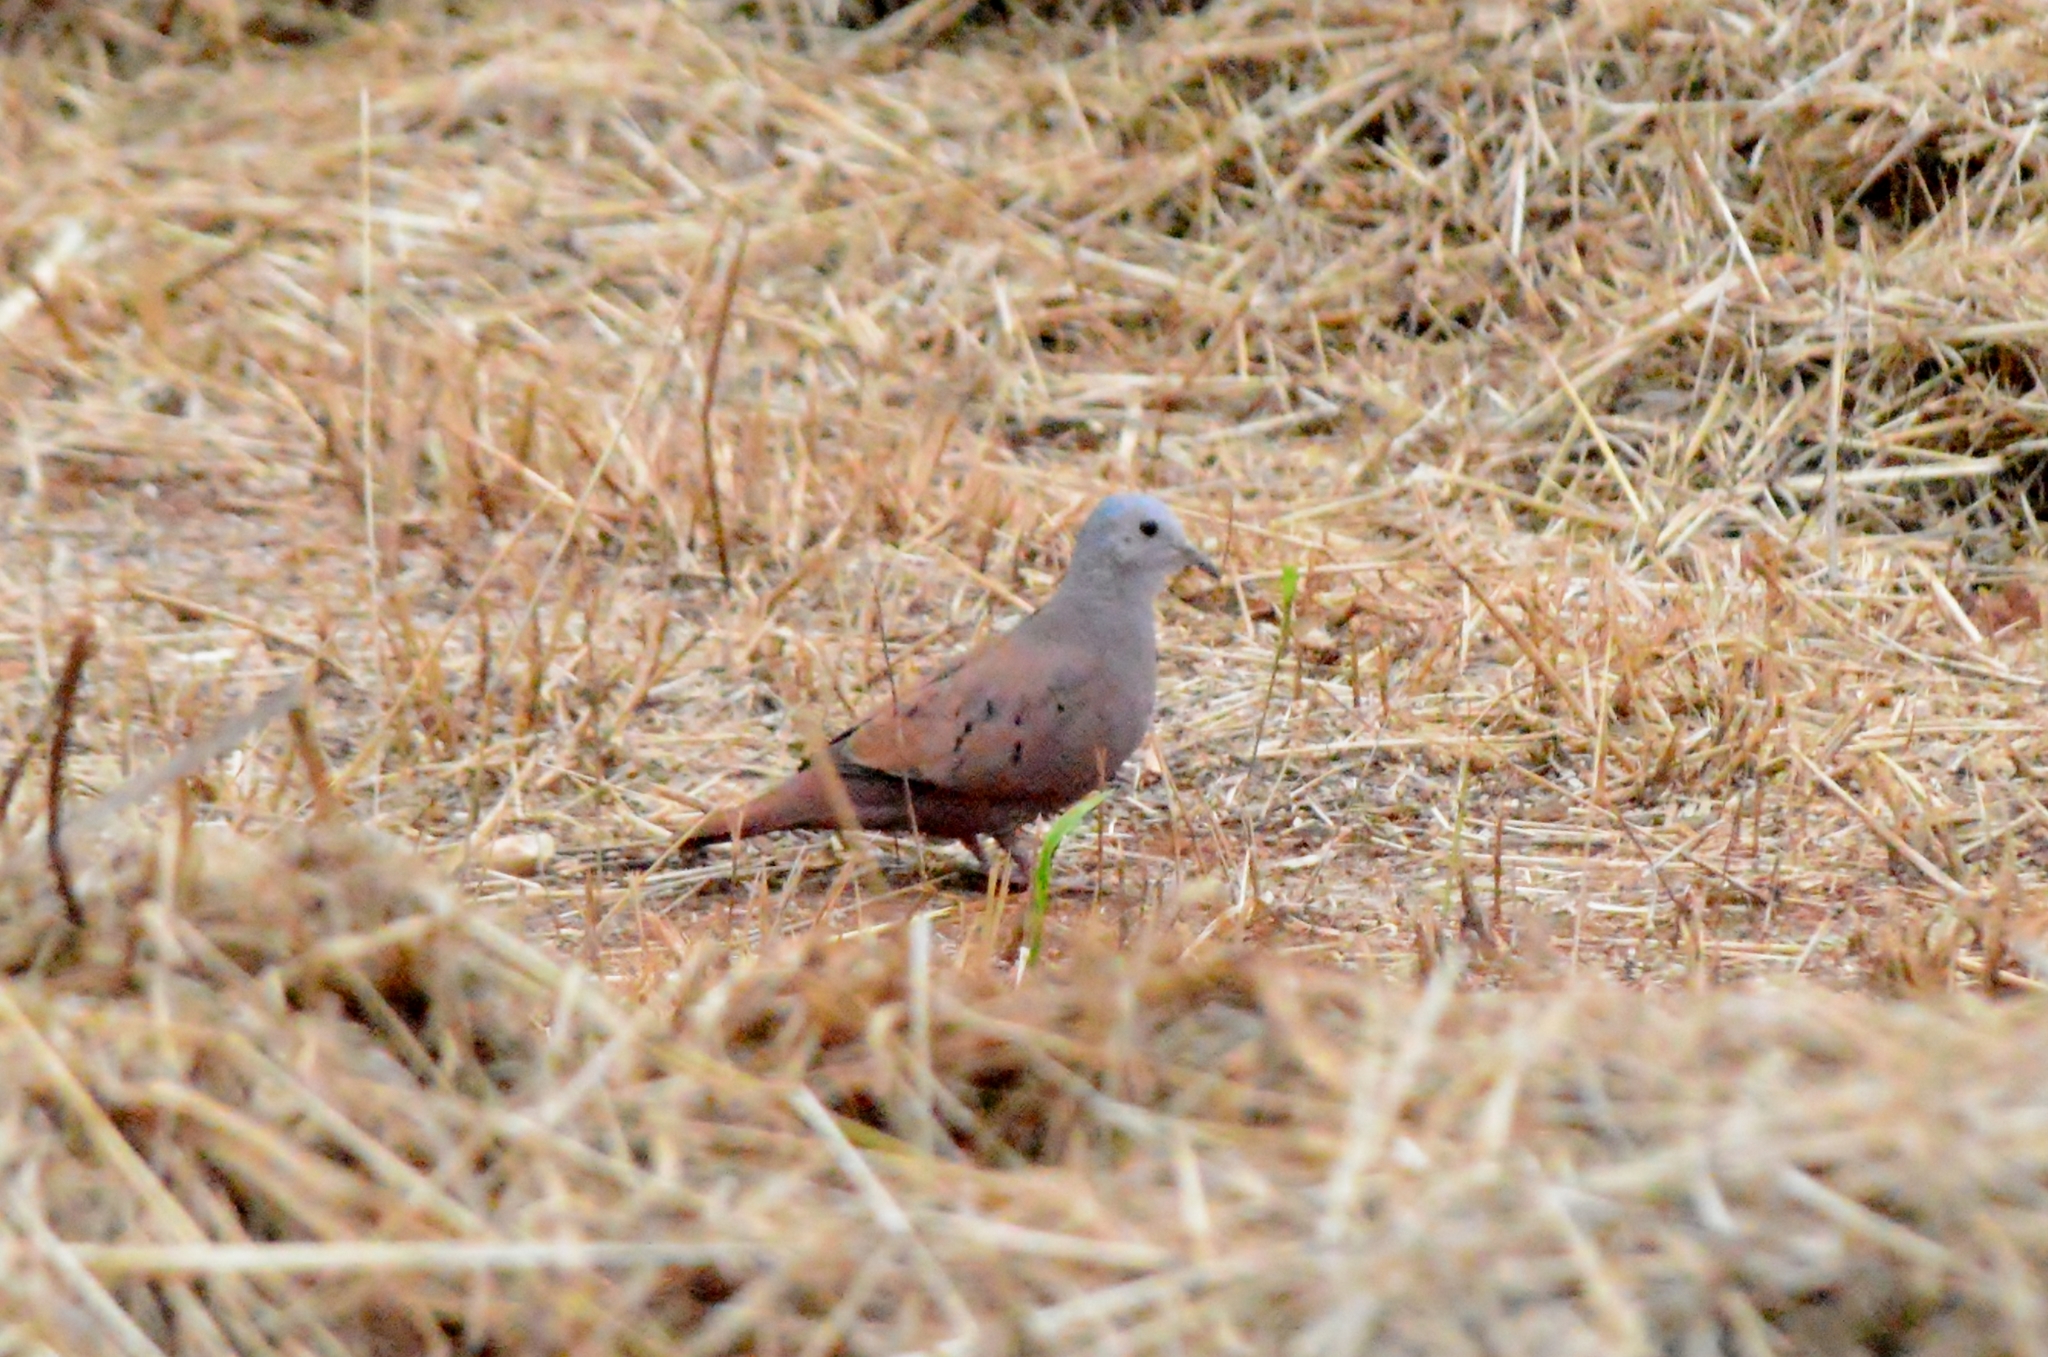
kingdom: Animalia
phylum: Chordata
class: Aves
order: Columbiformes
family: Columbidae
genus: Columbina
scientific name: Columbina talpacoti
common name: Ruddy ground dove
